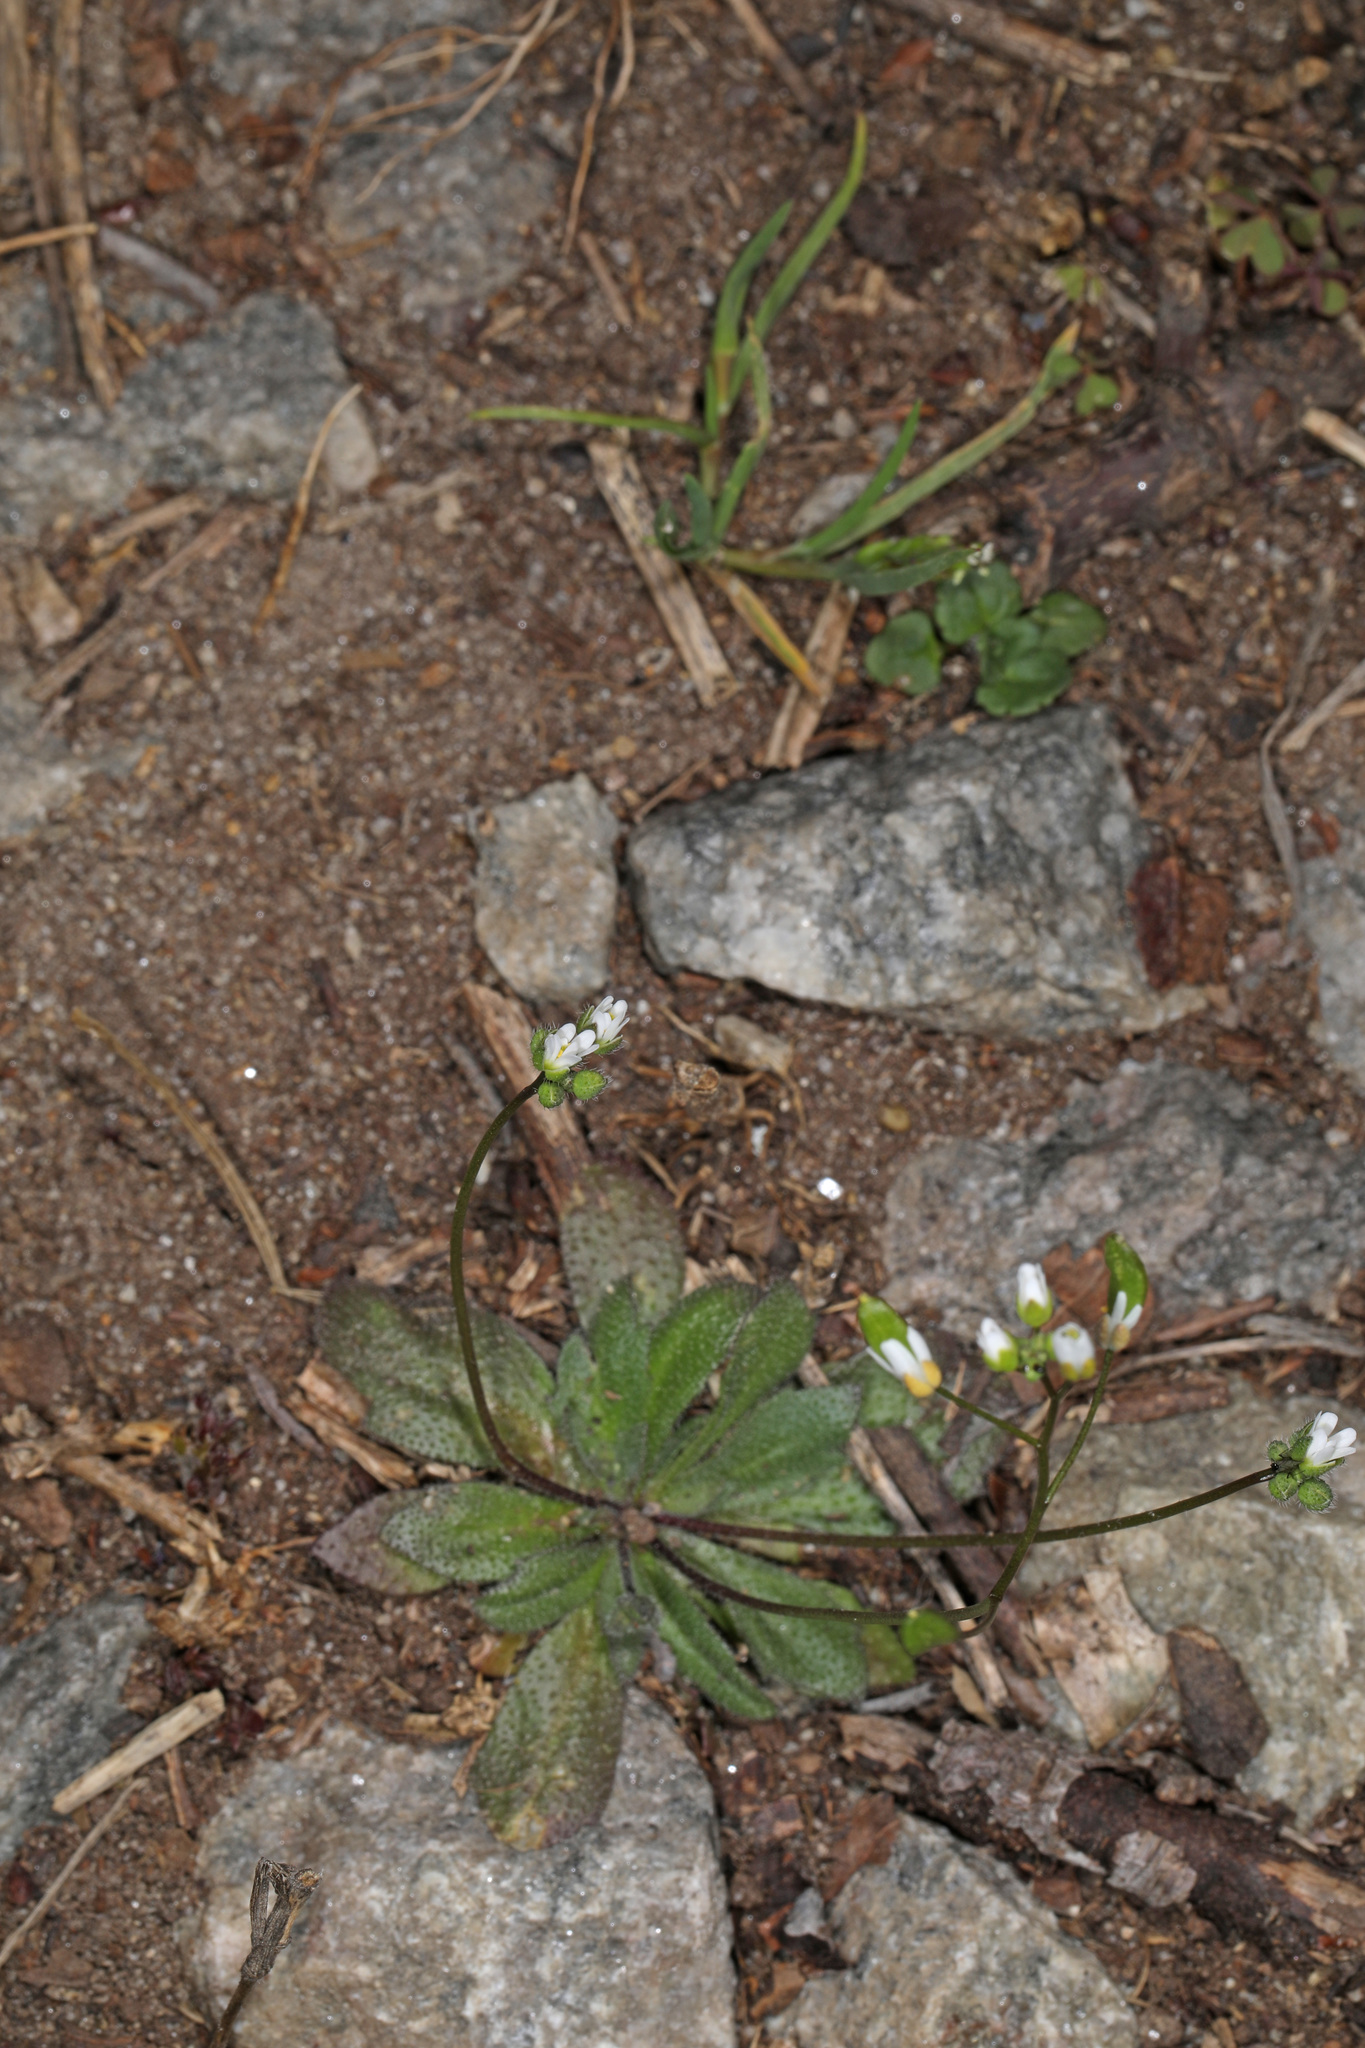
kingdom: Plantae
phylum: Tracheophyta
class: Magnoliopsida
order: Brassicales
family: Brassicaceae
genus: Draba
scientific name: Draba verna
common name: Spring draba
